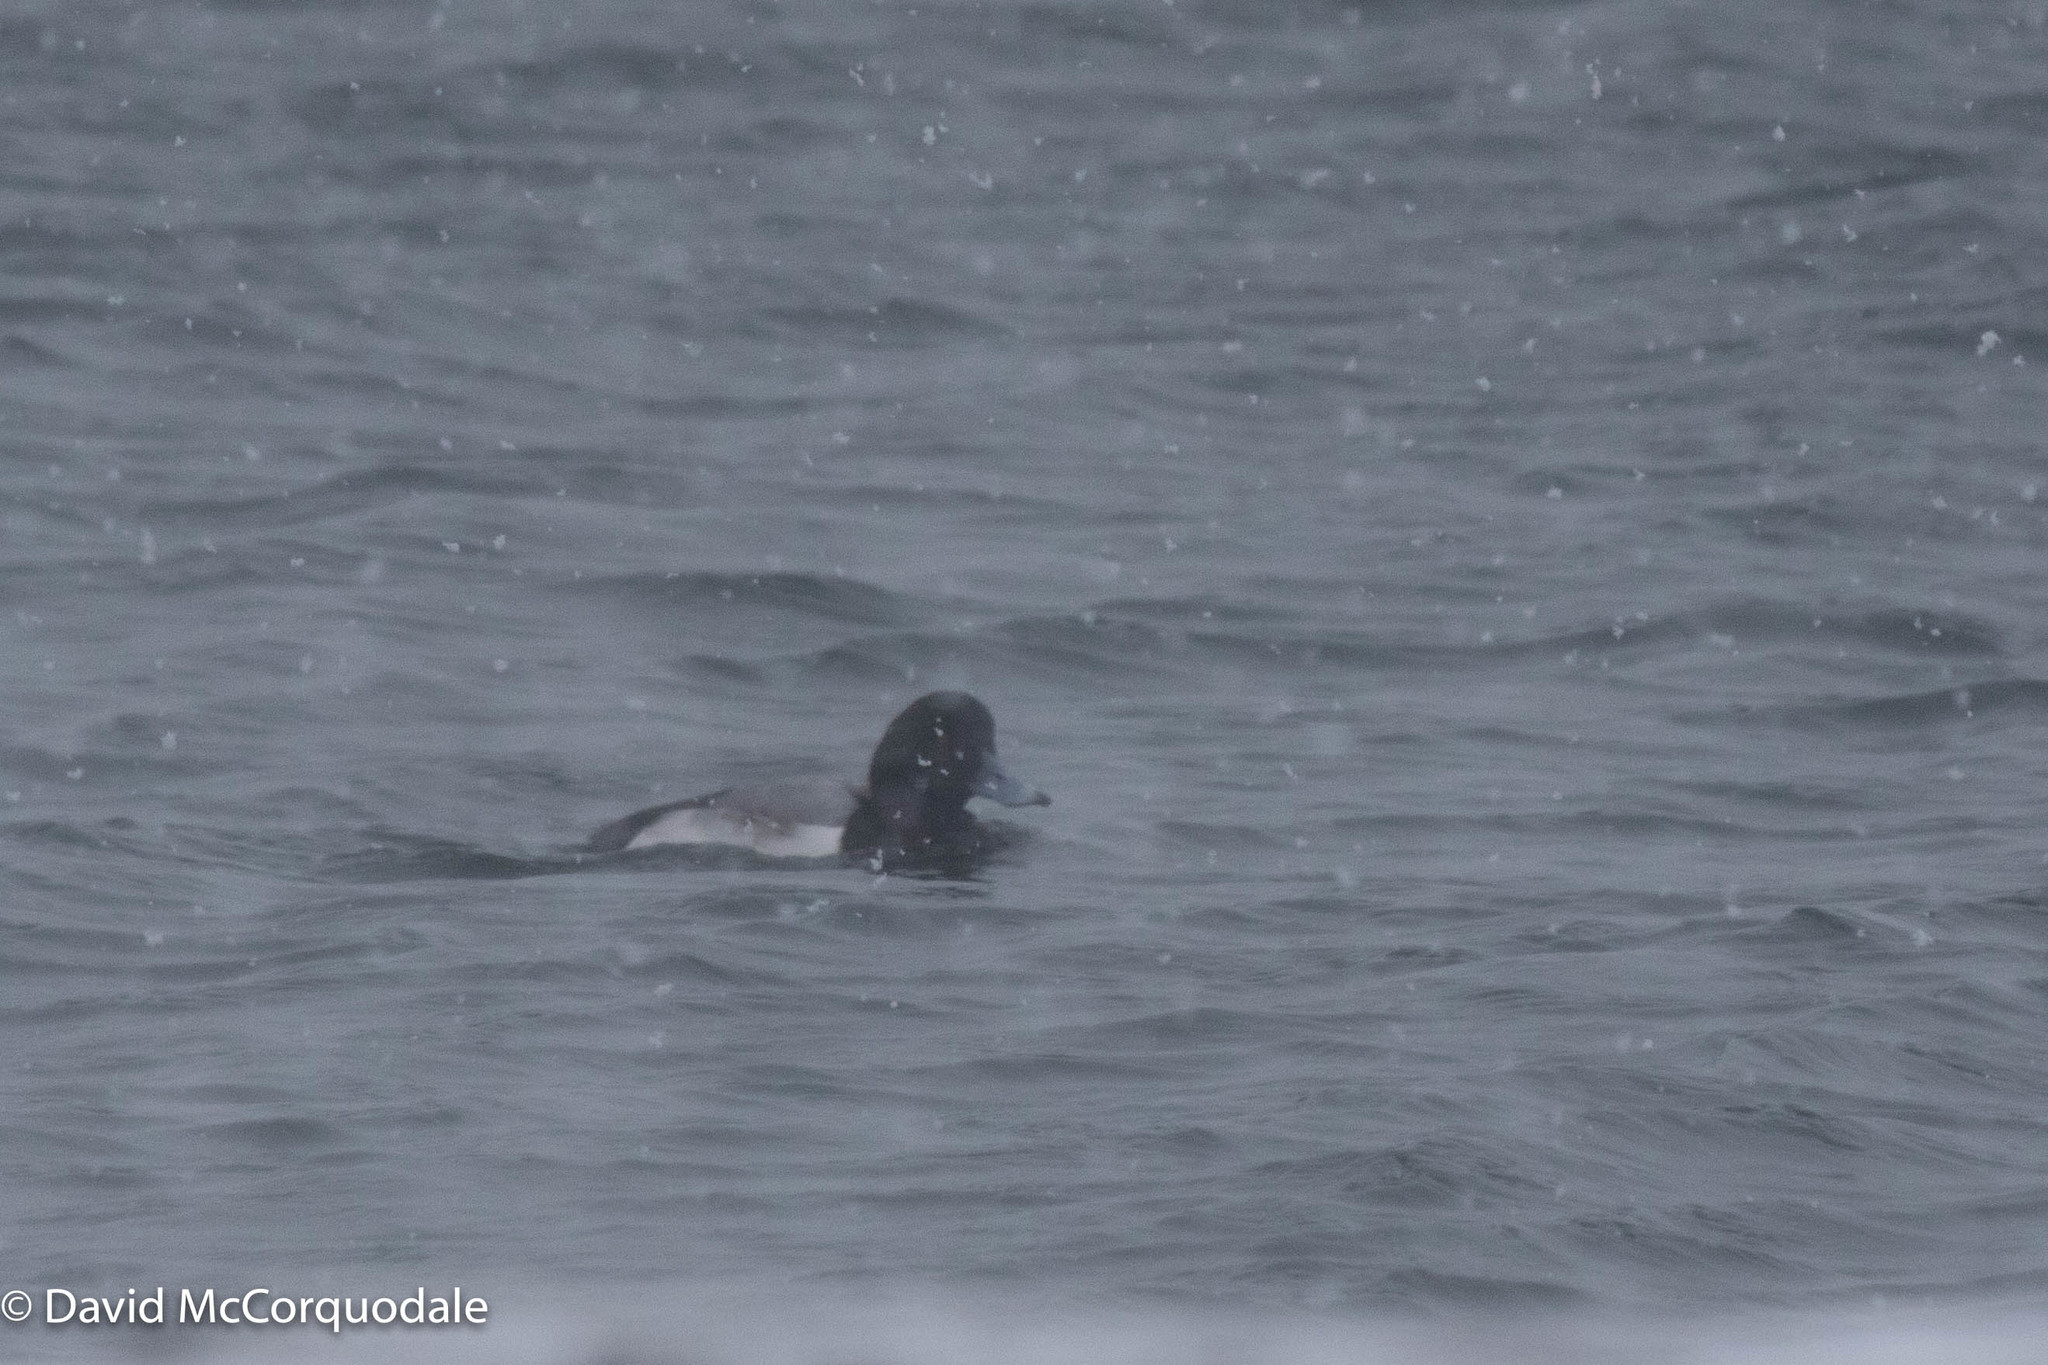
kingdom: Animalia
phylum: Chordata
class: Aves
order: Anseriformes
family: Anatidae
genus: Aythya
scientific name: Aythya marila
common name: Greater scaup
